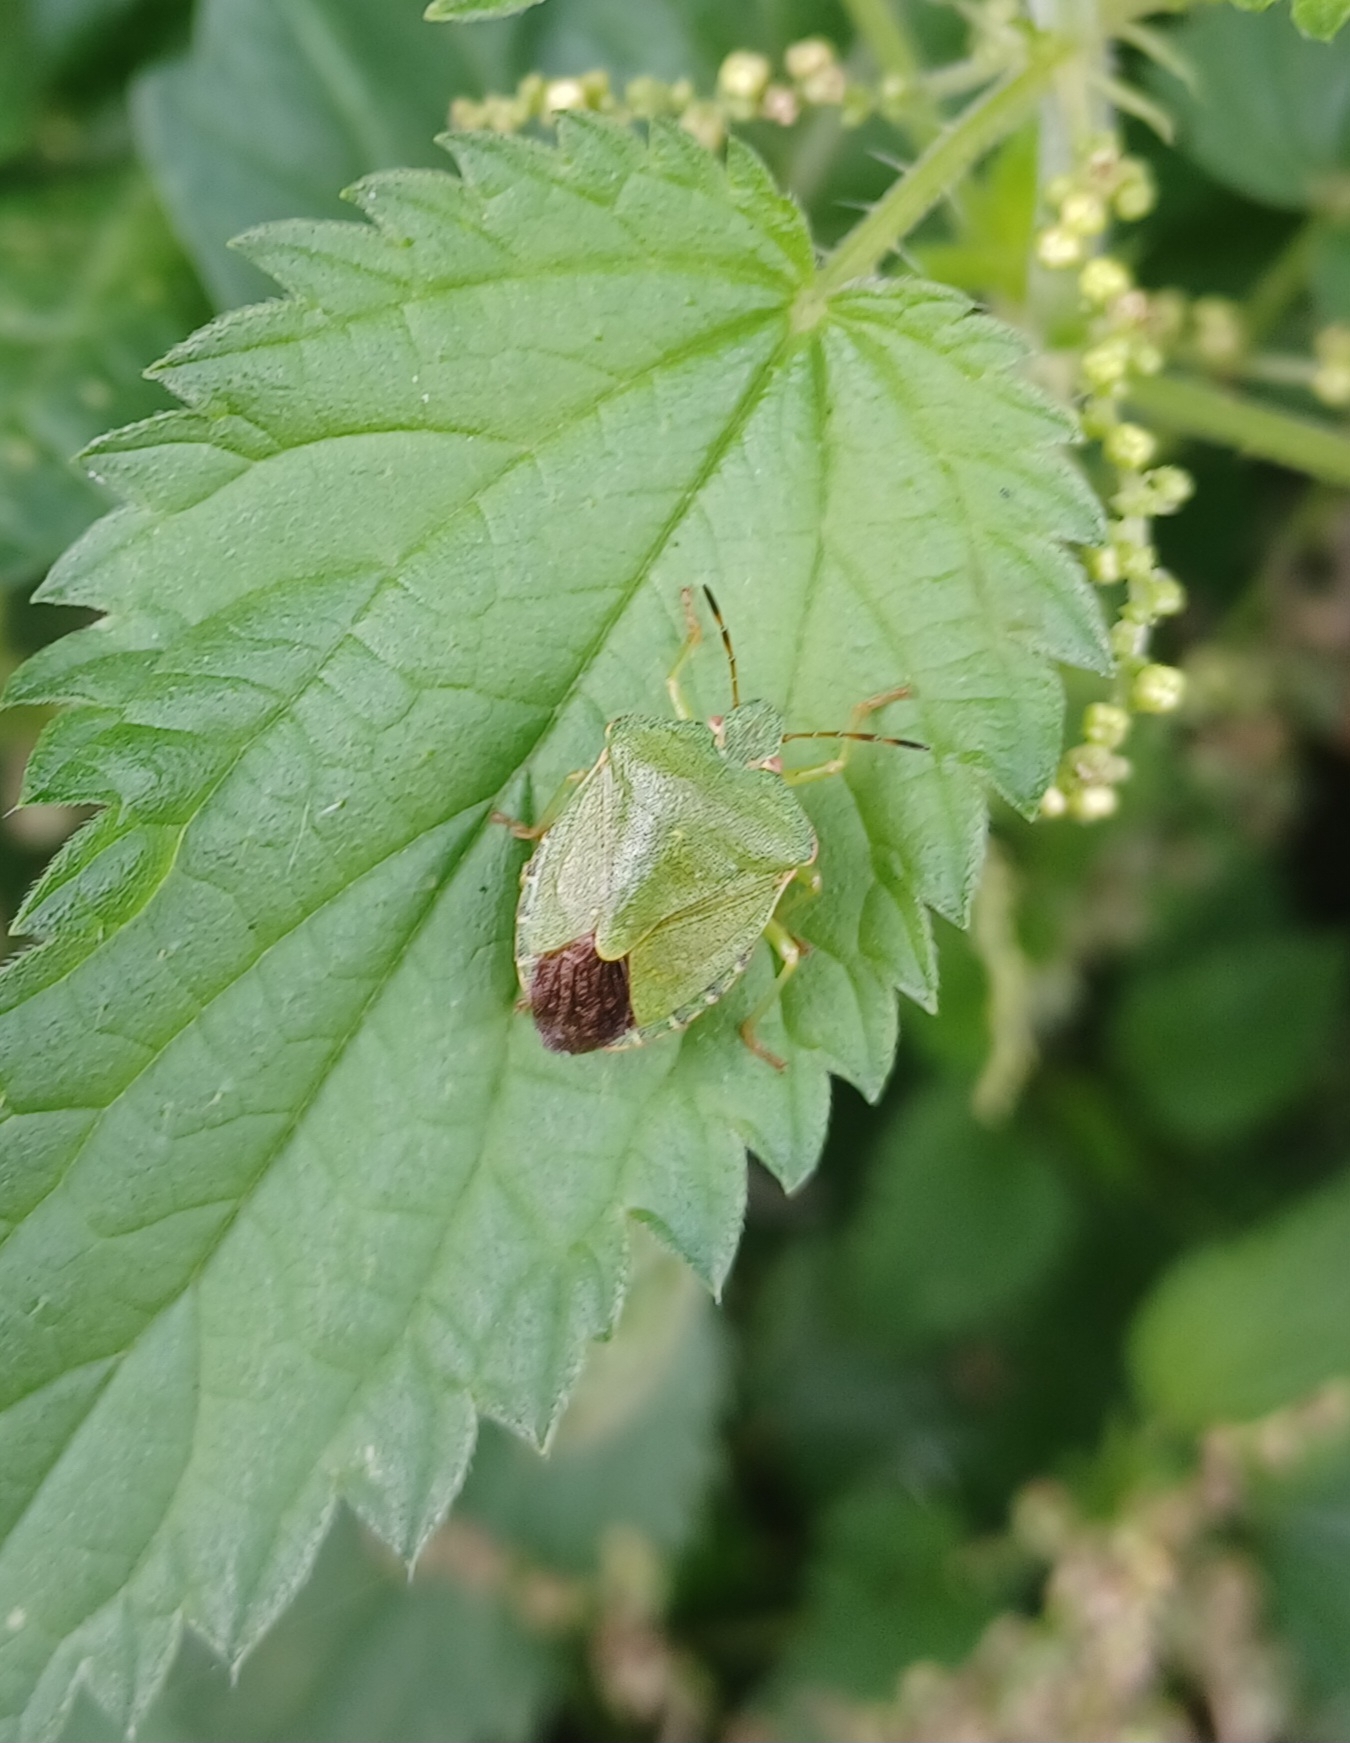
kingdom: Animalia
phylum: Arthropoda
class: Insecta
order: Hemiptera
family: Pentatomidae
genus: Palomena
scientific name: Palomena prasina
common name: Green shieldbug
